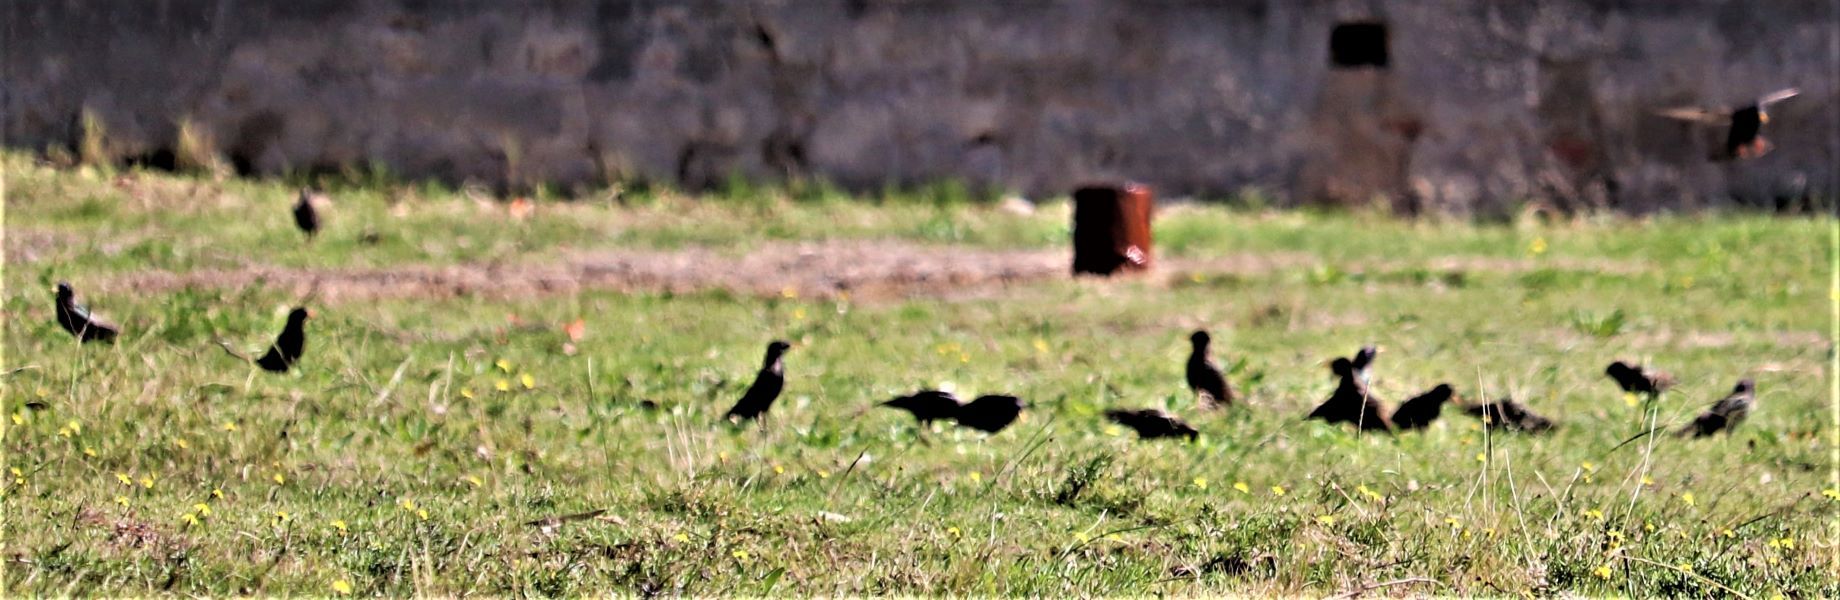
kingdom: Animalia
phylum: Chordata
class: Aves
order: Passeriformes
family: Sturnidae
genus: Sturnus
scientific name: Sturnus vulgaris
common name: Common starling
